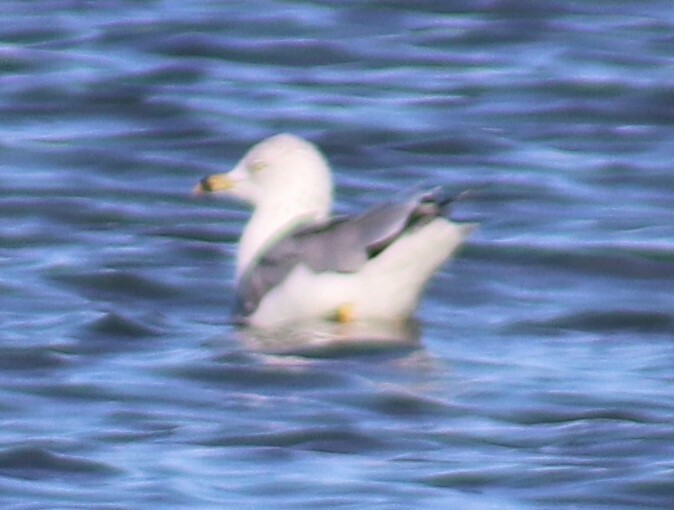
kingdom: Animalia
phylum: Chordata
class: Aves
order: Charadriiformes
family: Laridae
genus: Larus
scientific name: Larus delawarensis
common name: Ring-billed gull
